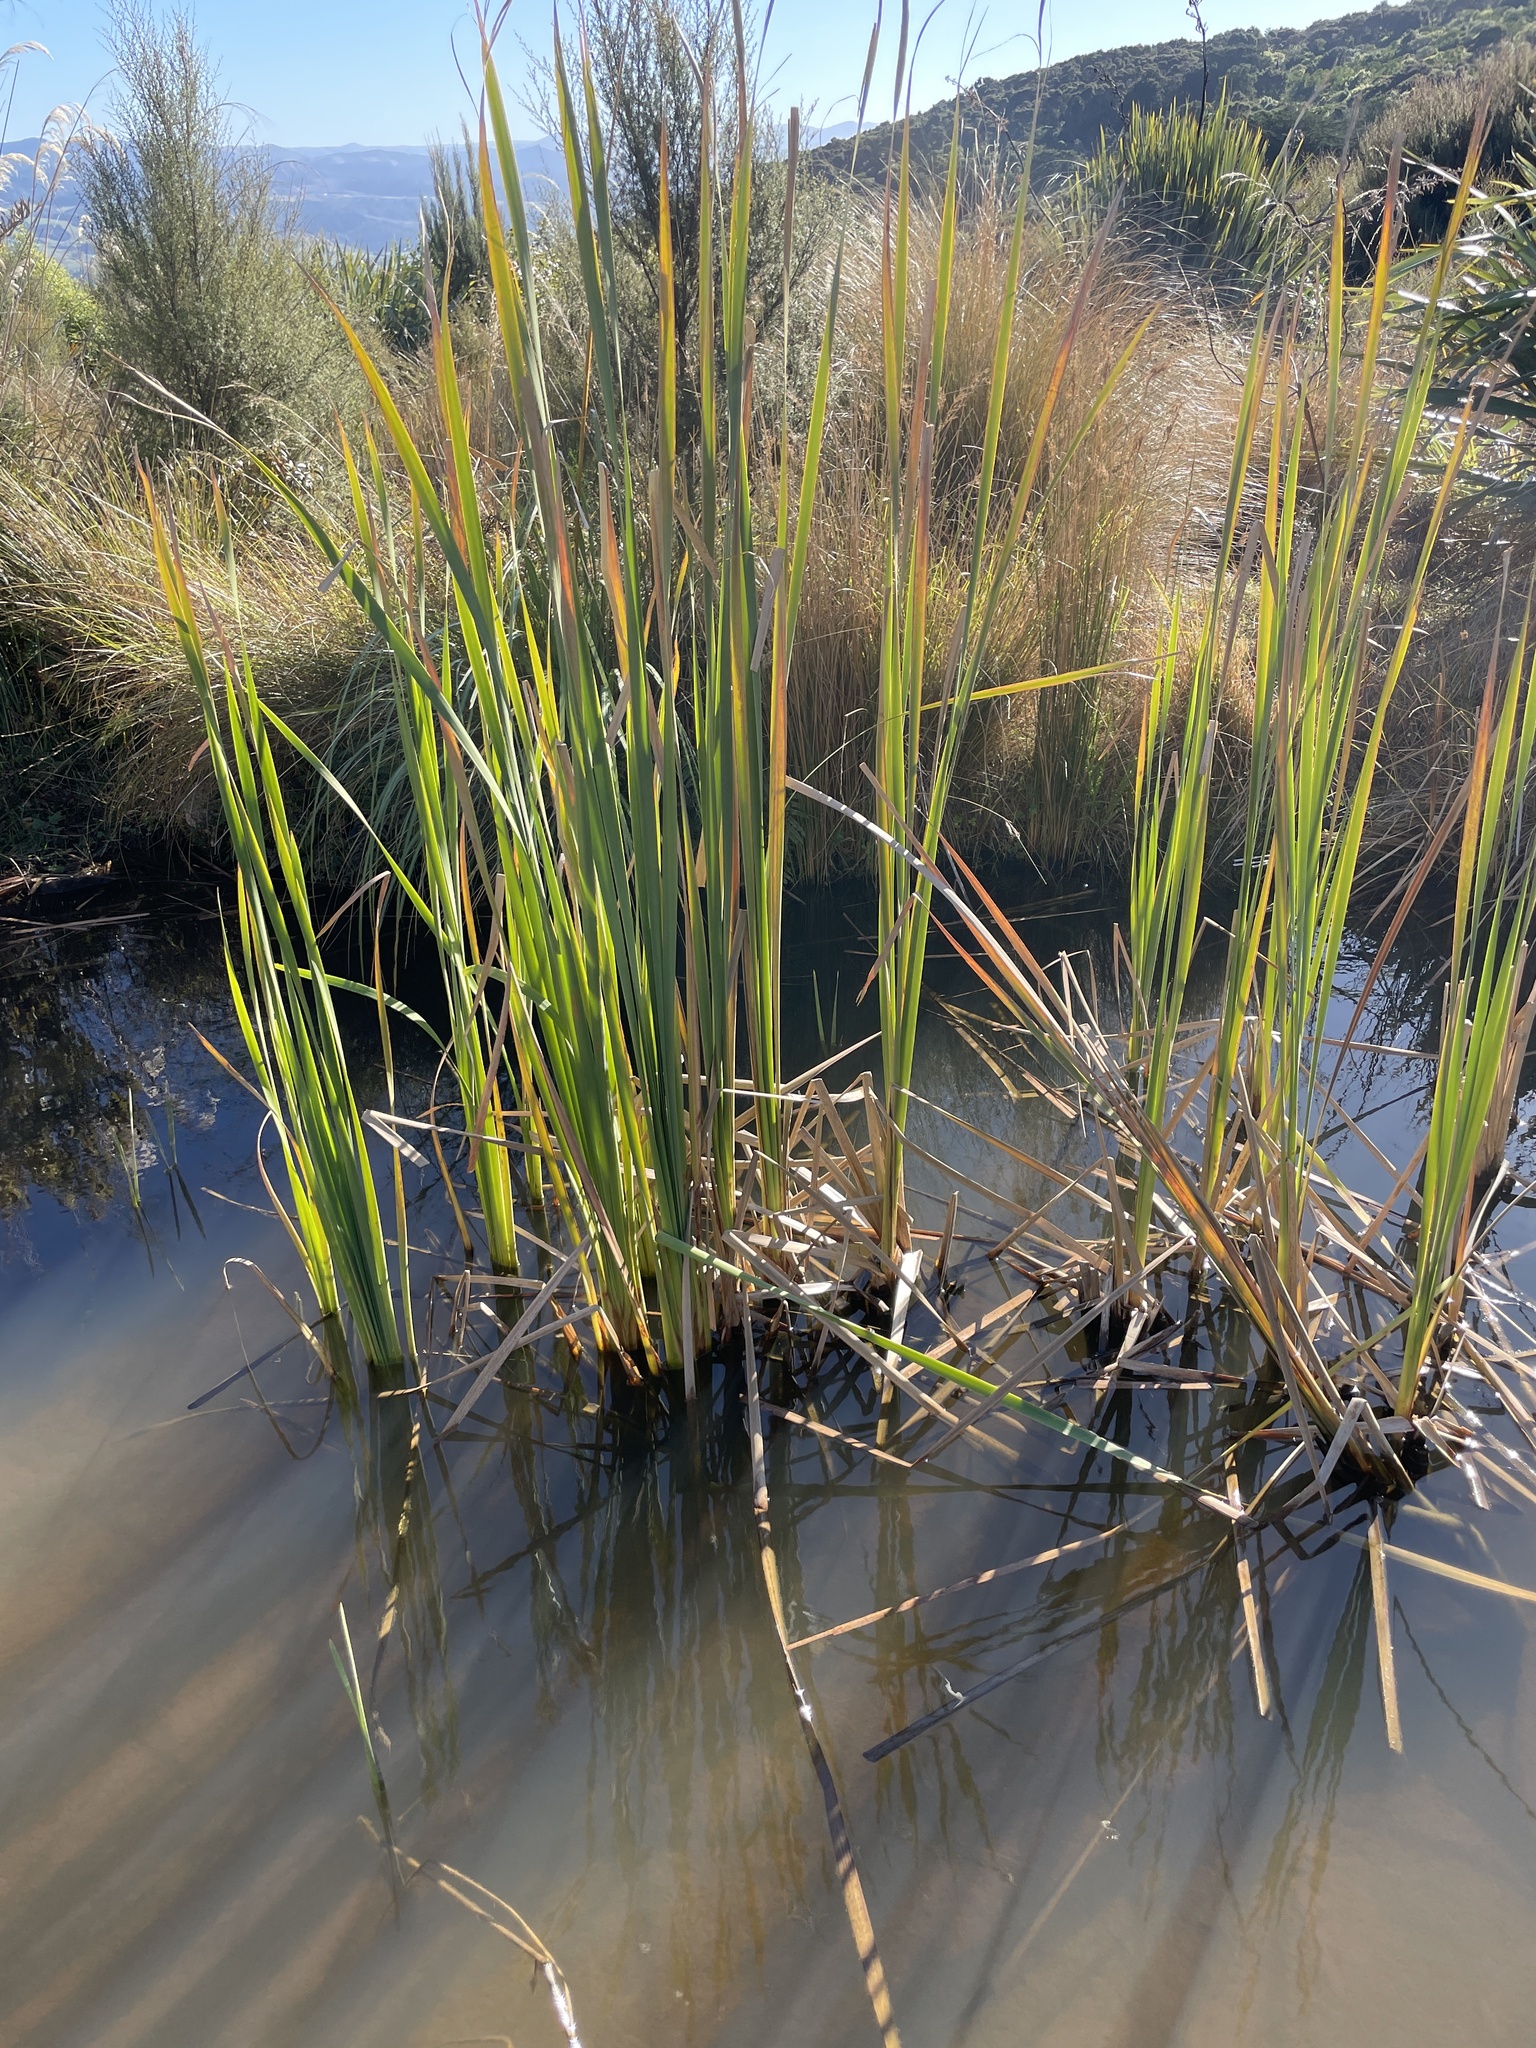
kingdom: Plantae
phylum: Tracheophyta
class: Liliopsida
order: Poales
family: Typhaceae
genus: Typha
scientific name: Typha orientalis
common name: Bullrush
